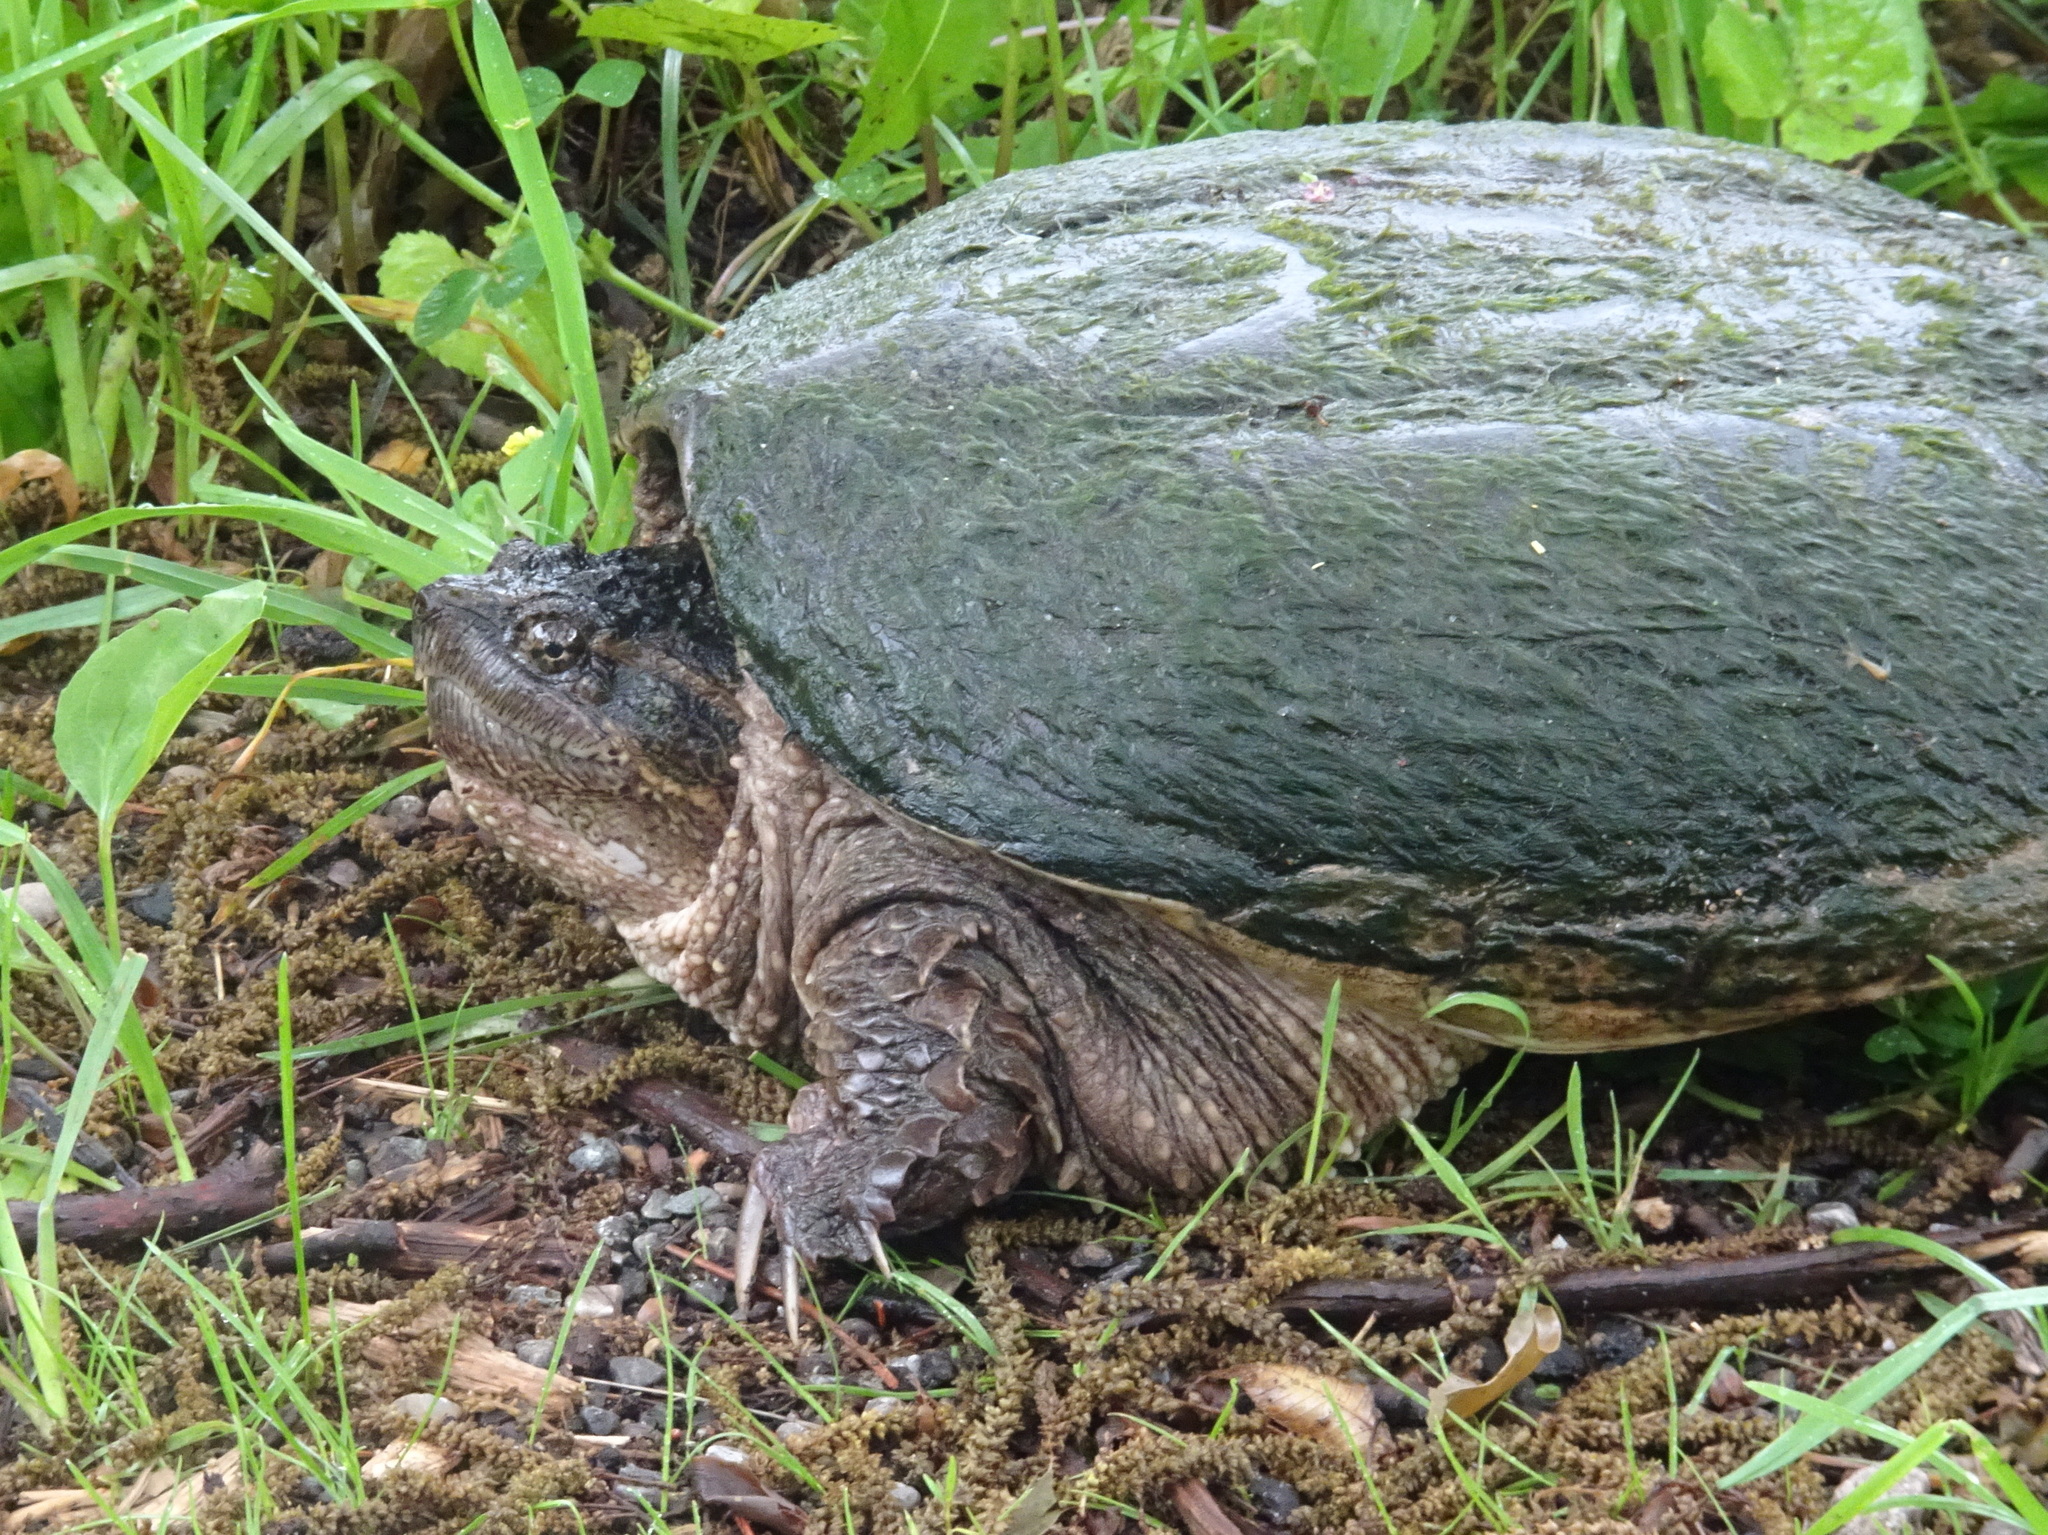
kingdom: Animalia
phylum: Chordata
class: Testudines
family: Chelydridae
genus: Chelydra
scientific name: Chelydra serpentina
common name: Common snapping turtle
